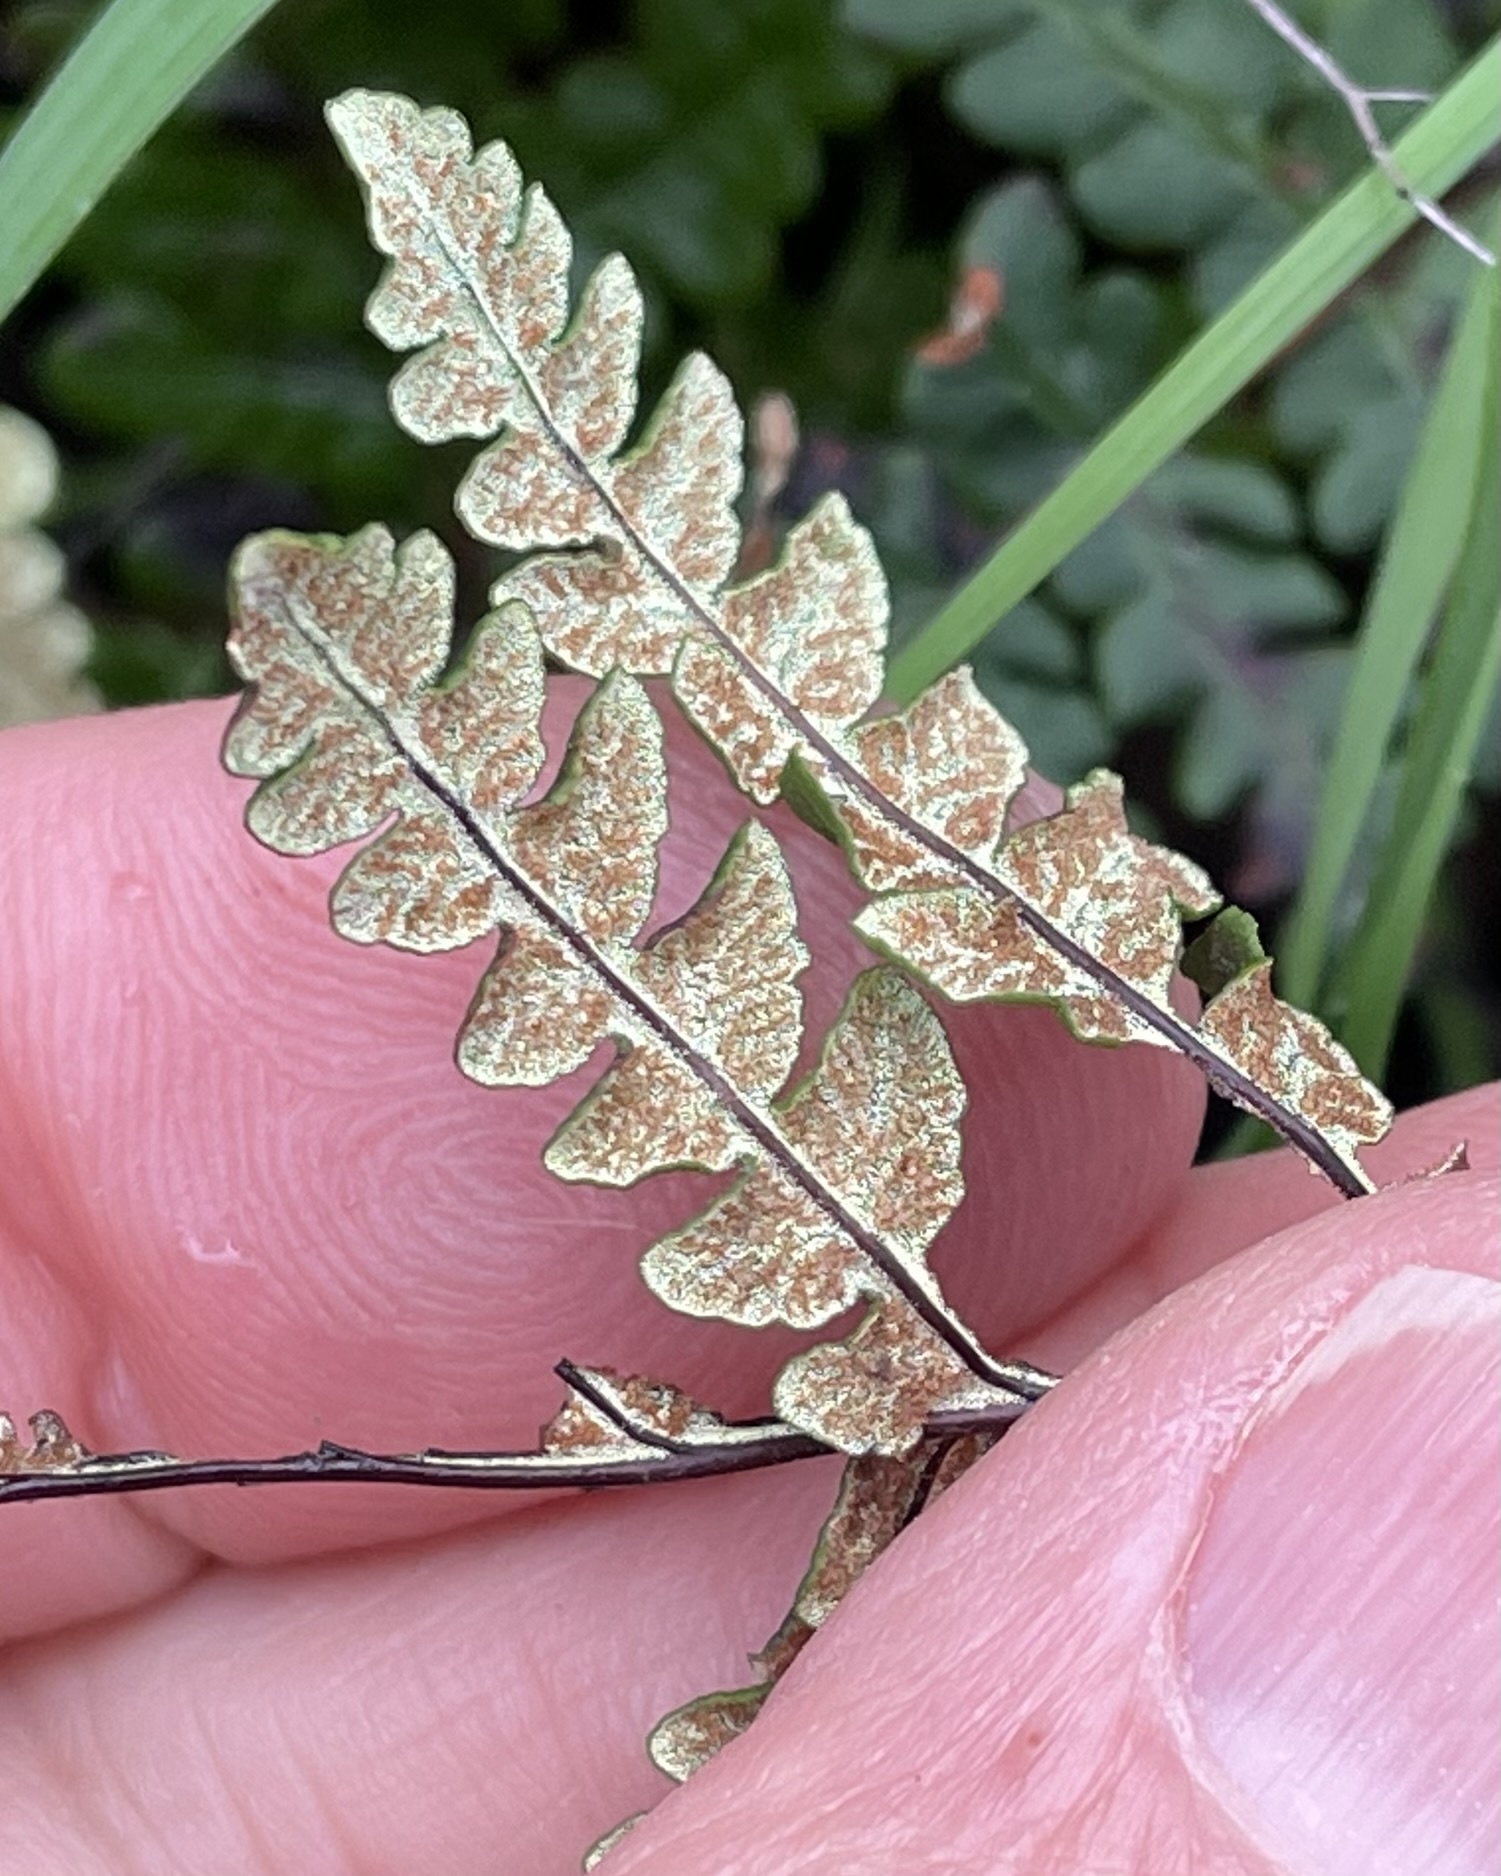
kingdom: Plantae
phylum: Tracheophyta
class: Polypodiopsida
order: Polypodiales
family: Pteridaceae
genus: Pentagramma
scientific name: Pentagramma triangularis
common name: Gold fern
